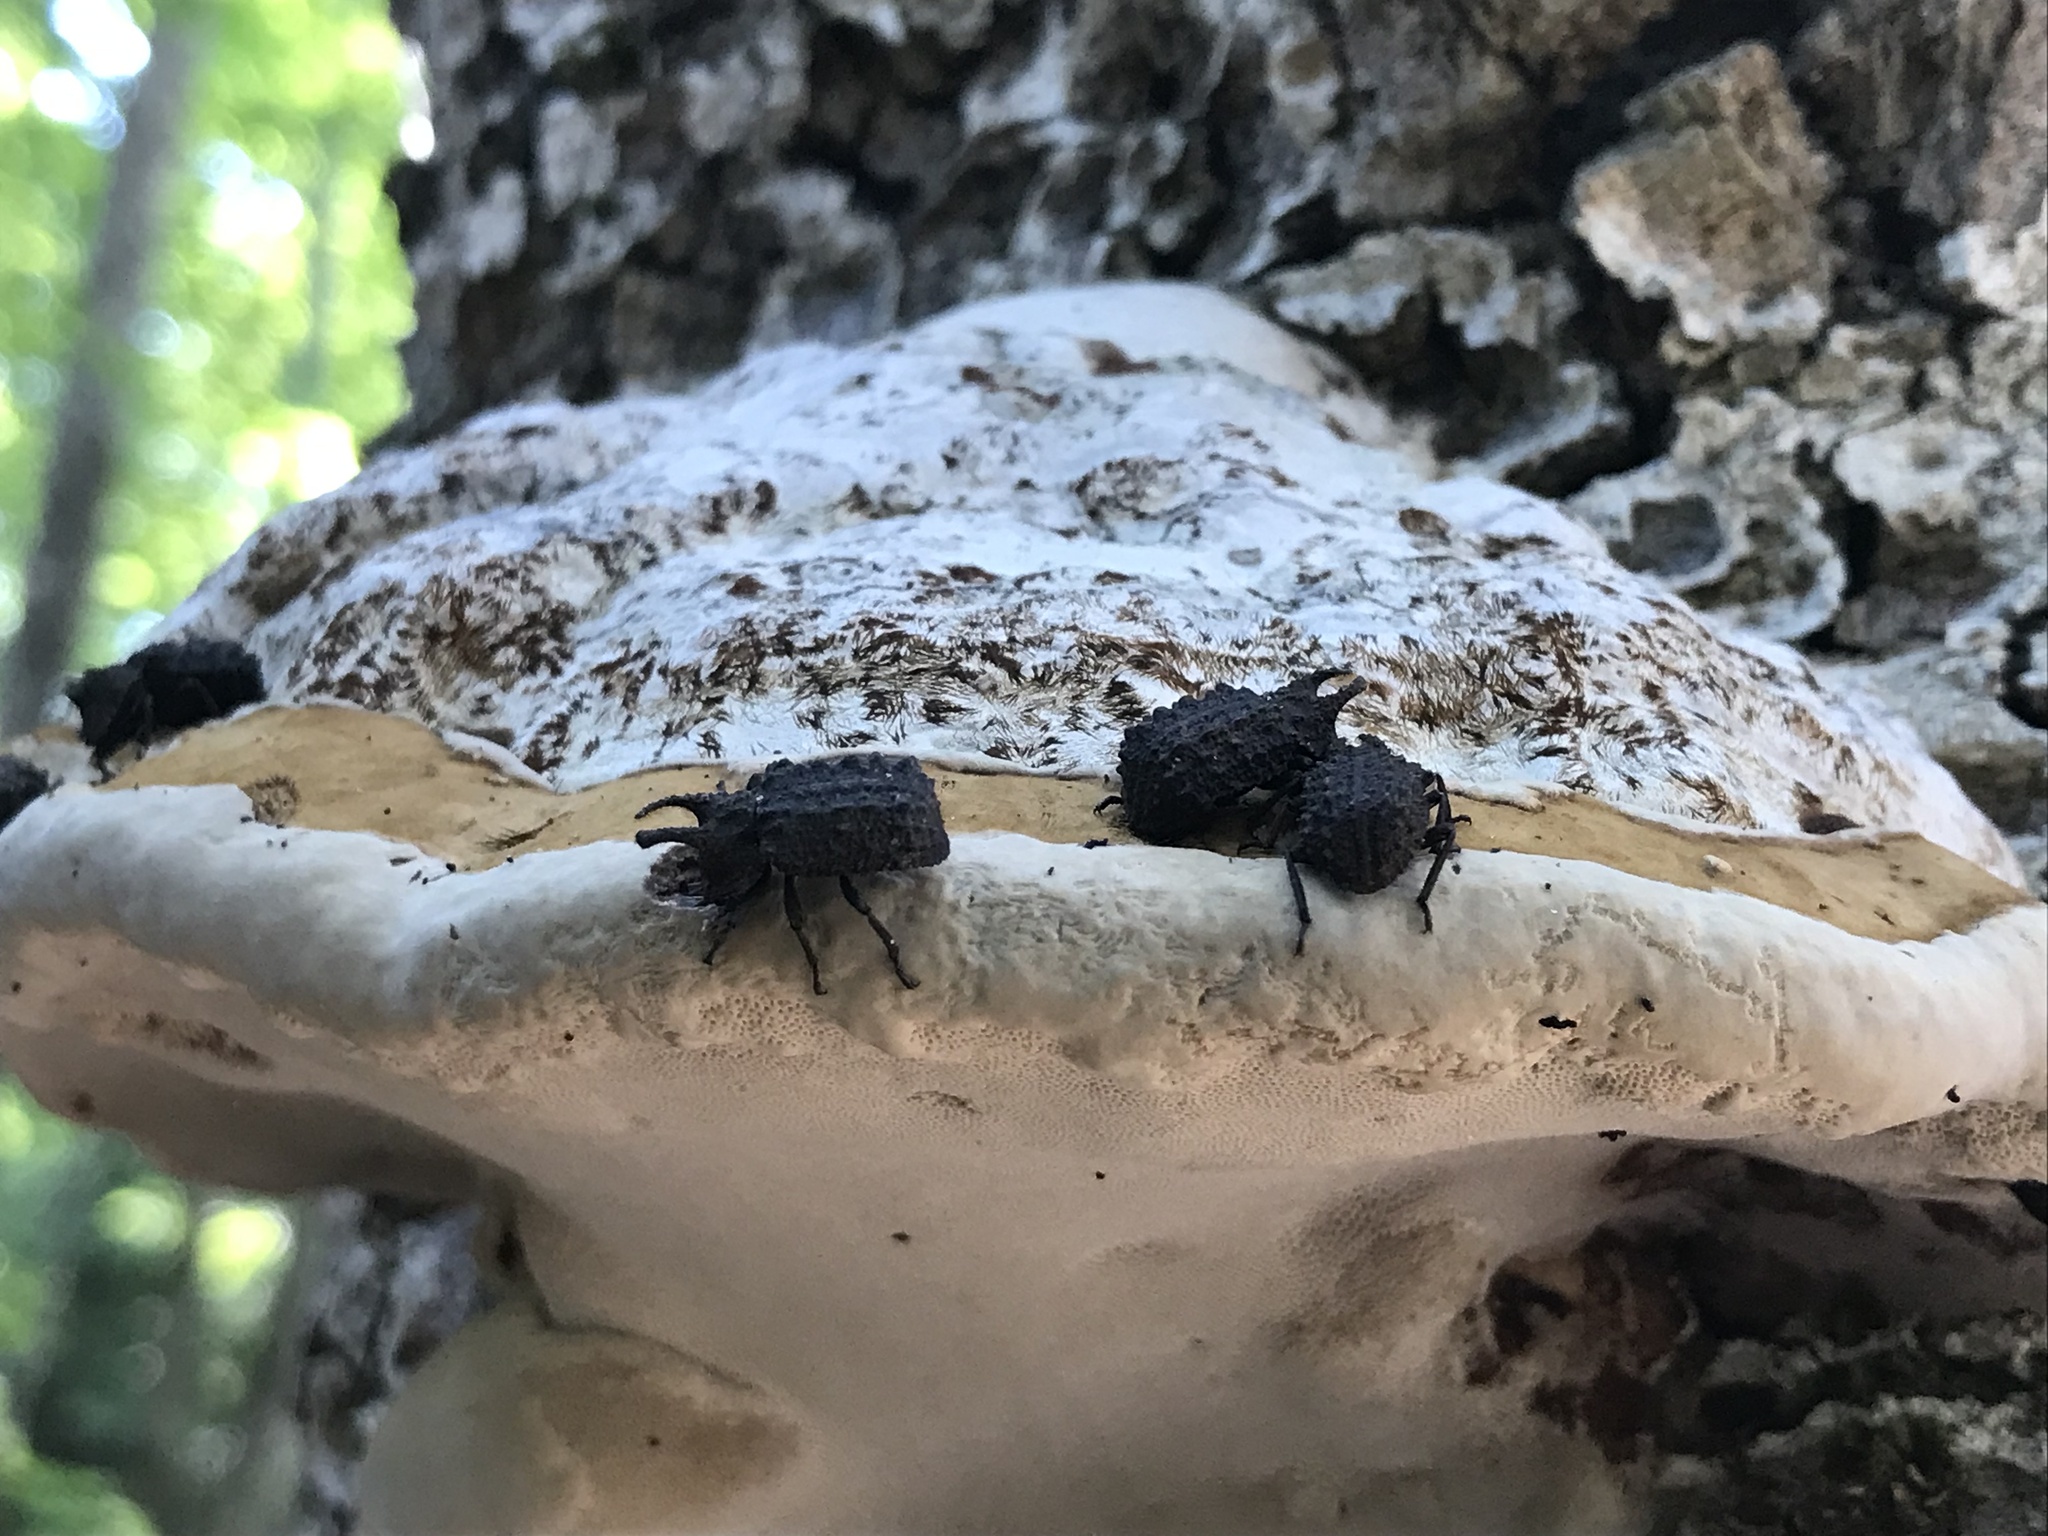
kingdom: Animalia
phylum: Arthropoda
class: Insecta
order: Coleoptera
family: Tenebrionidae
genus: Gnatocerus
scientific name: Gnatocerus cornutus
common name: Broad-horned flour beetle
